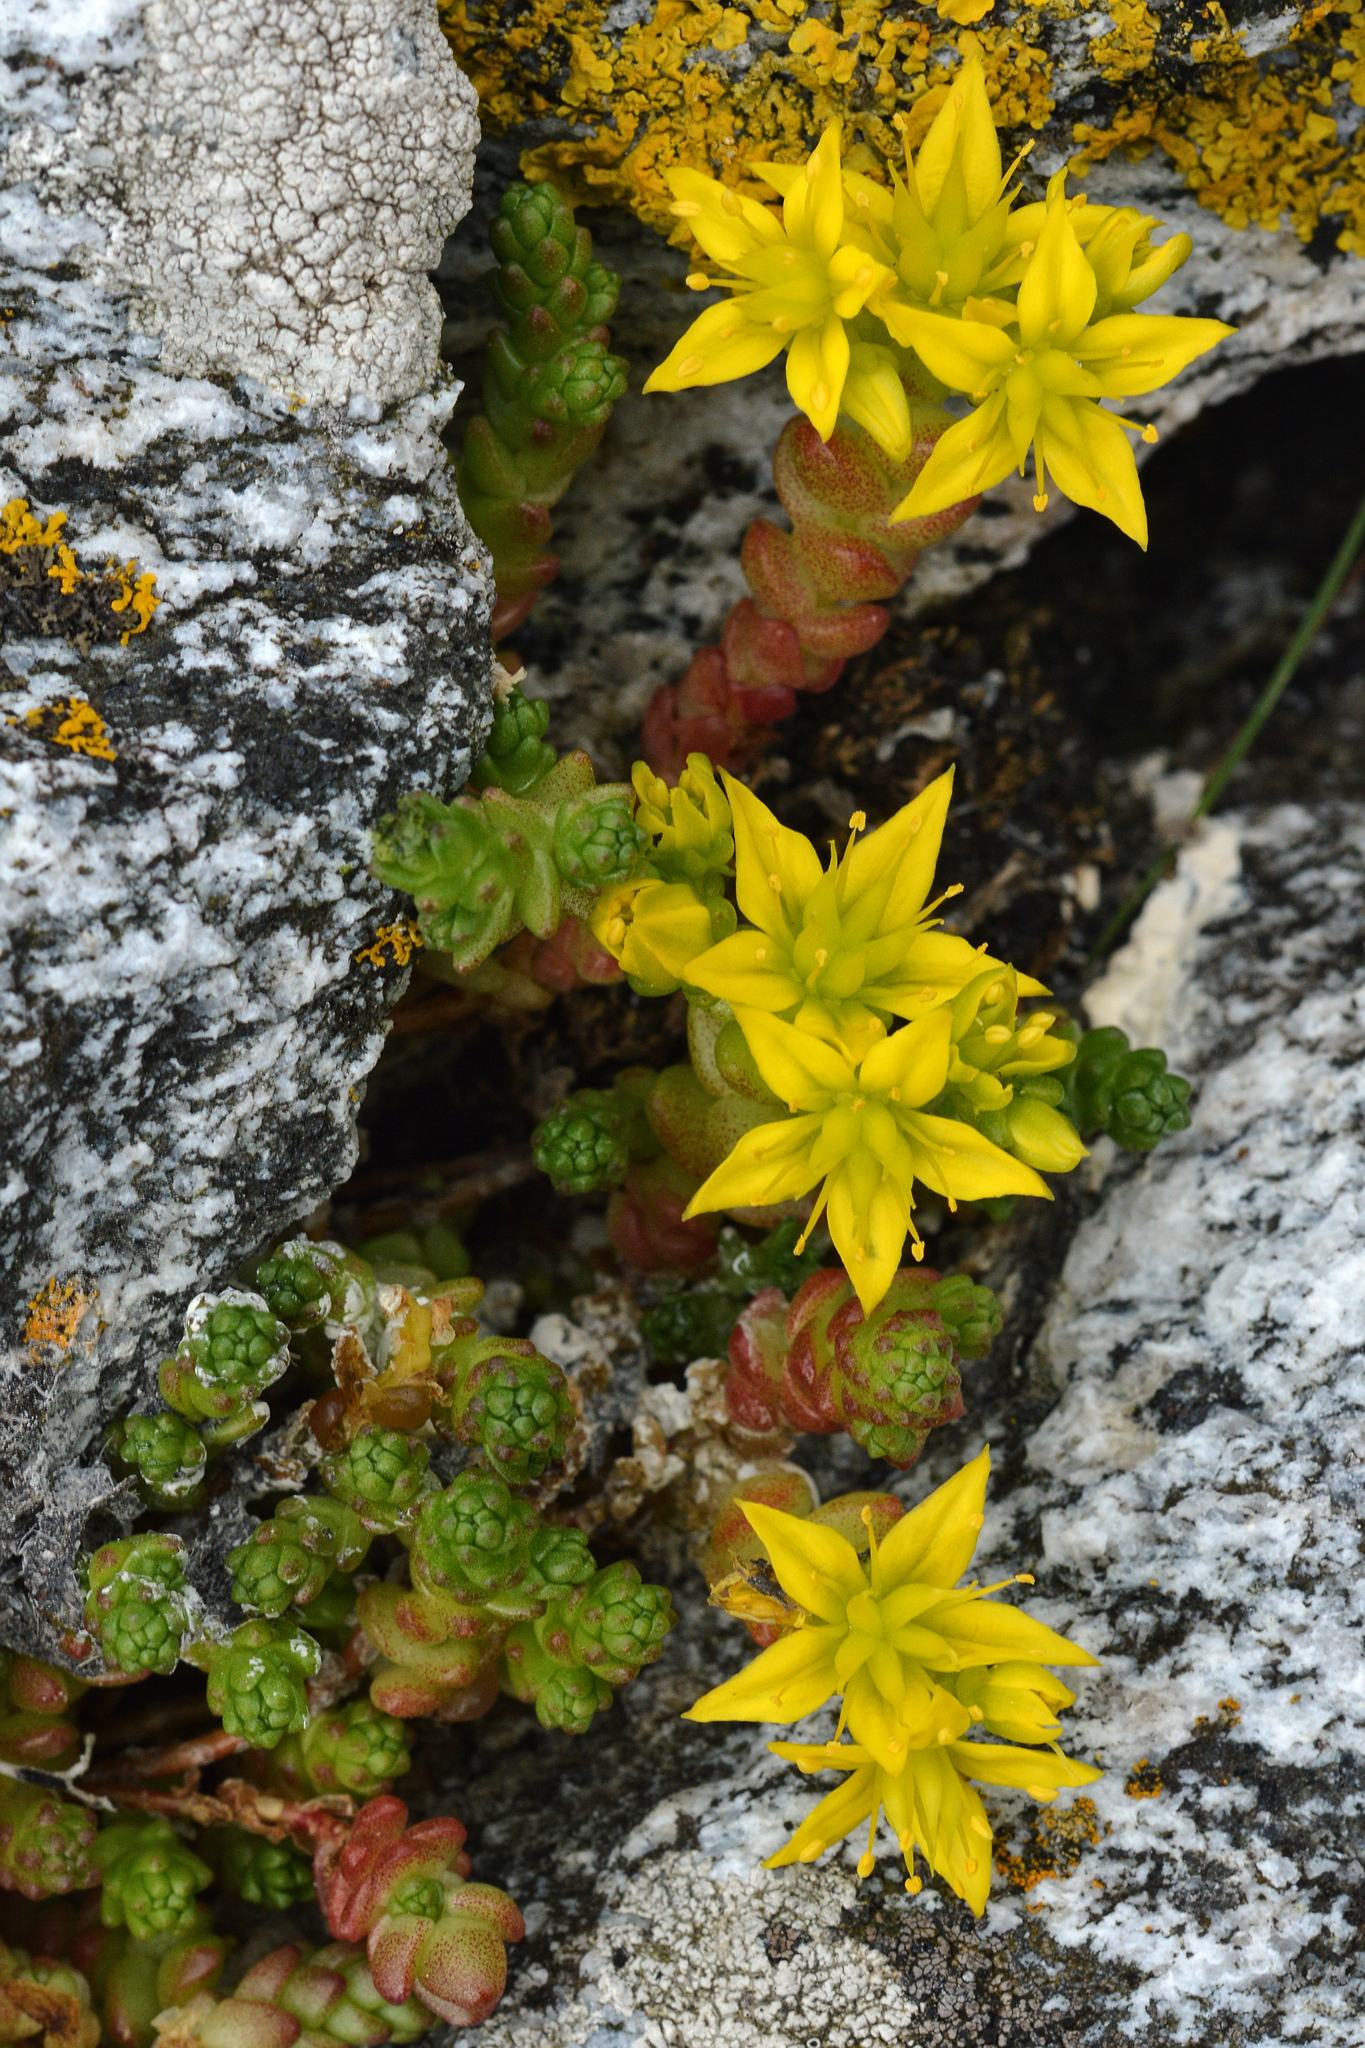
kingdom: Plantae
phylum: Tracheophyta
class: Magnoliopsida
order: Saxifragales
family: Crassulaceae
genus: Sedum
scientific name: Sedum acre
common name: Biting stonecrop
